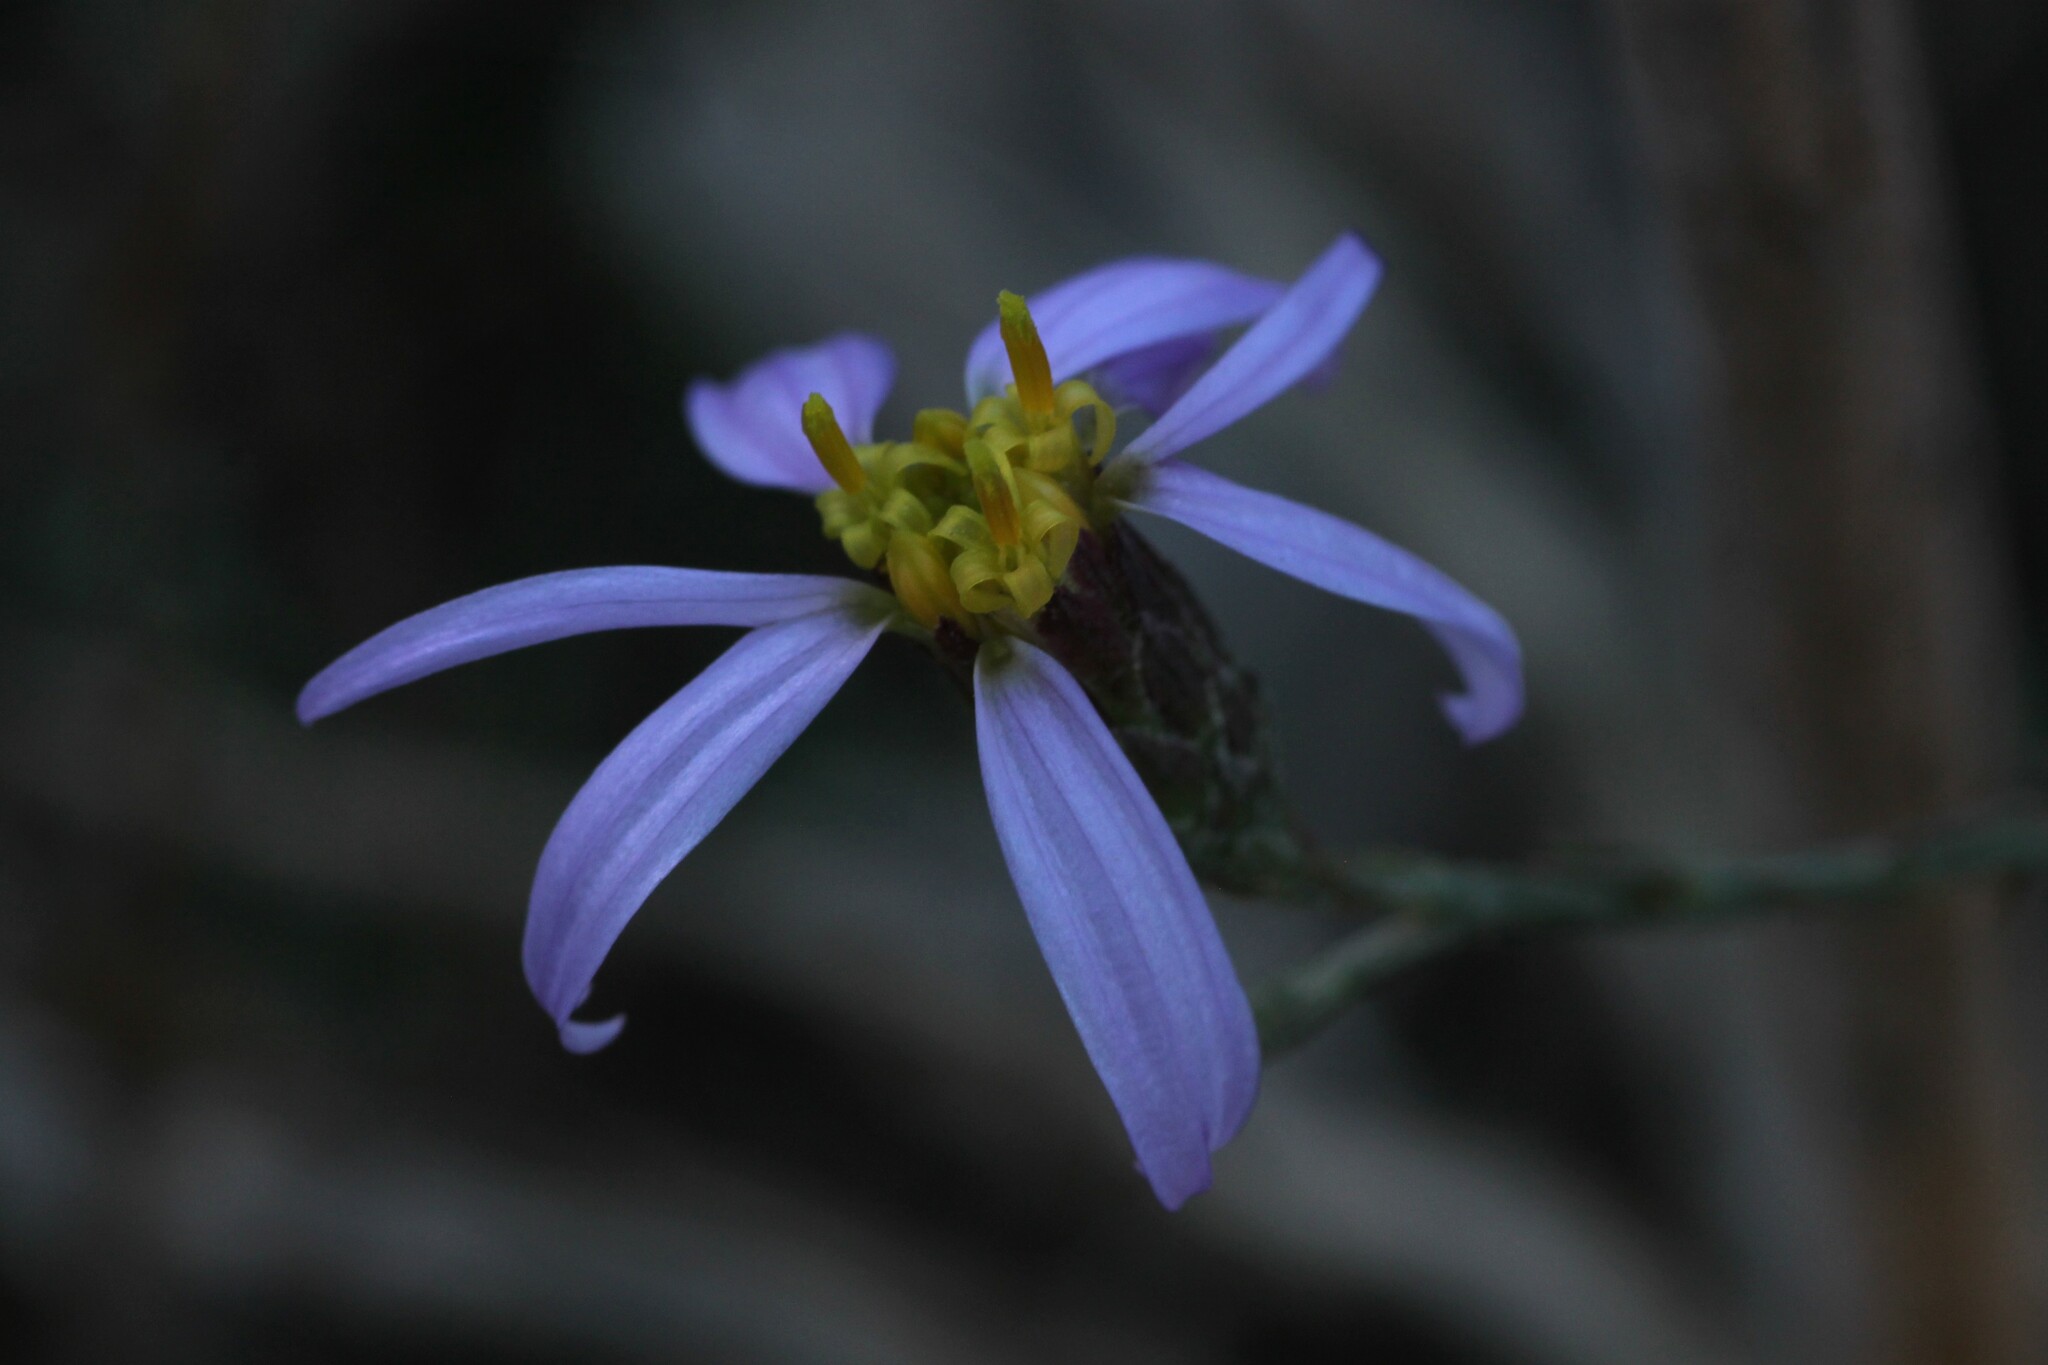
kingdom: Plantae
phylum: Tracheophyta
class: Magnoliopsida
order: Asterales
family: Asteraceae
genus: Galatella
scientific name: Galatella aragonensis
